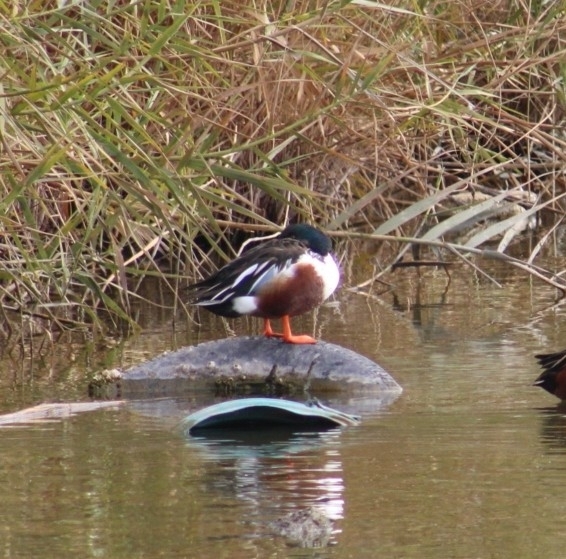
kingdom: Animalia
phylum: Chordata
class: Aves
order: Anseriformes
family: Anatidae
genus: Spatula
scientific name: Spatula clypeata
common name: Northern shoveler
